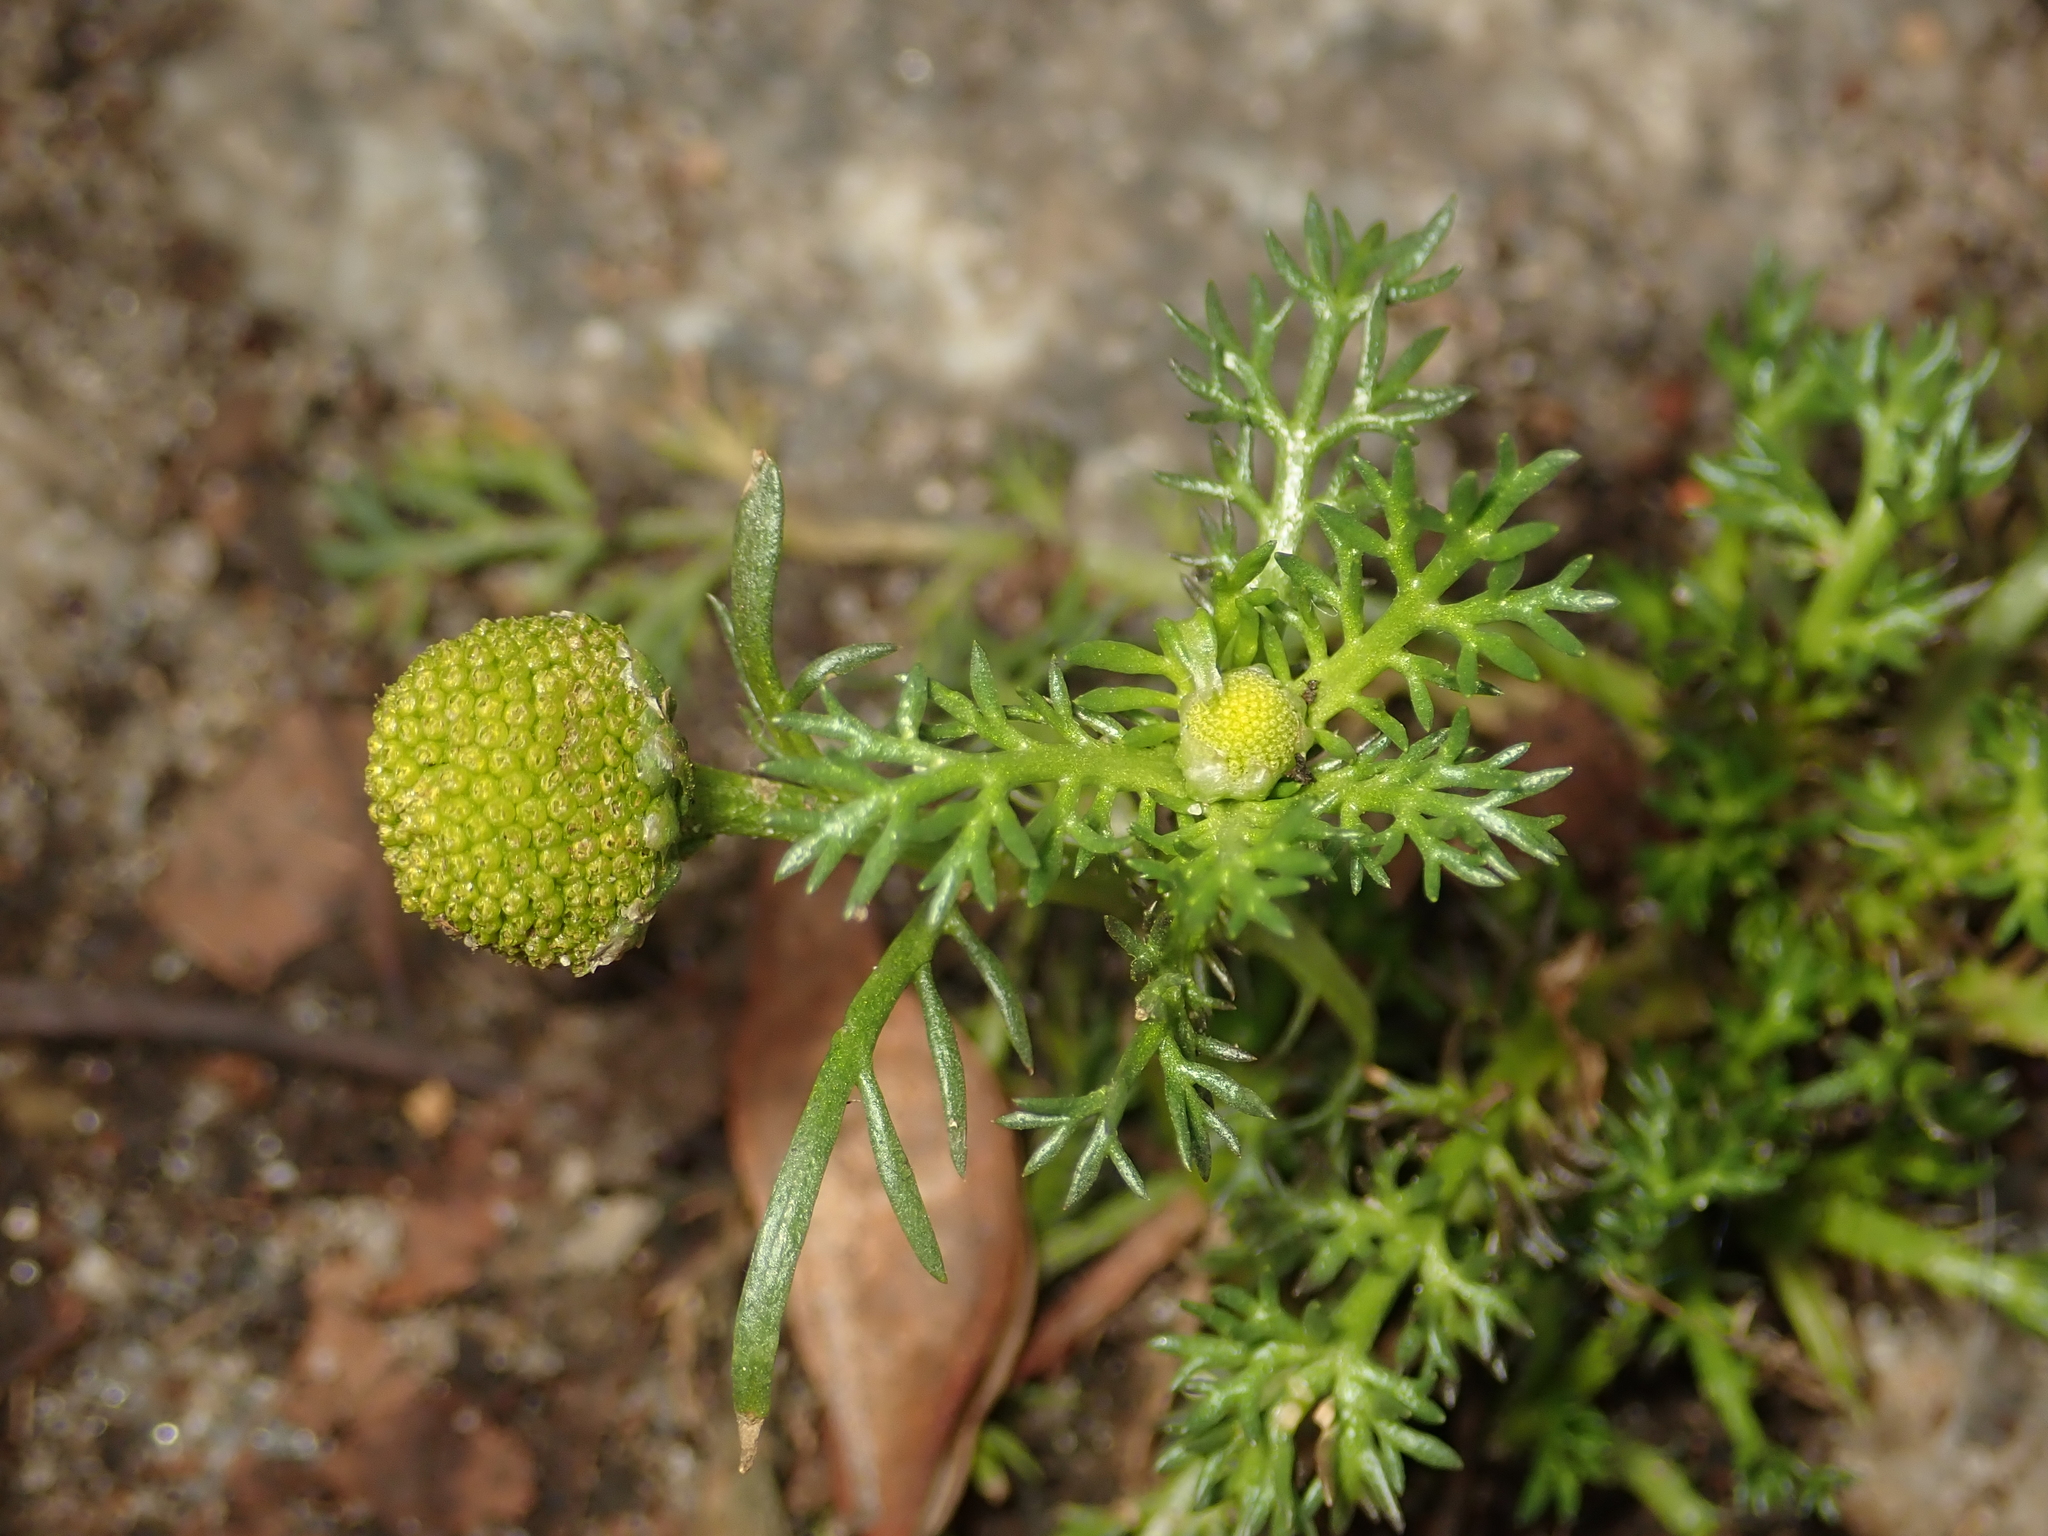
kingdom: Plantae
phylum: Tracheophyta
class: Magnoliopsida
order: Asterales
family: Asteraceae
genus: Matricaria
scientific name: Matricaria discoidea
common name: Disc mayweed
